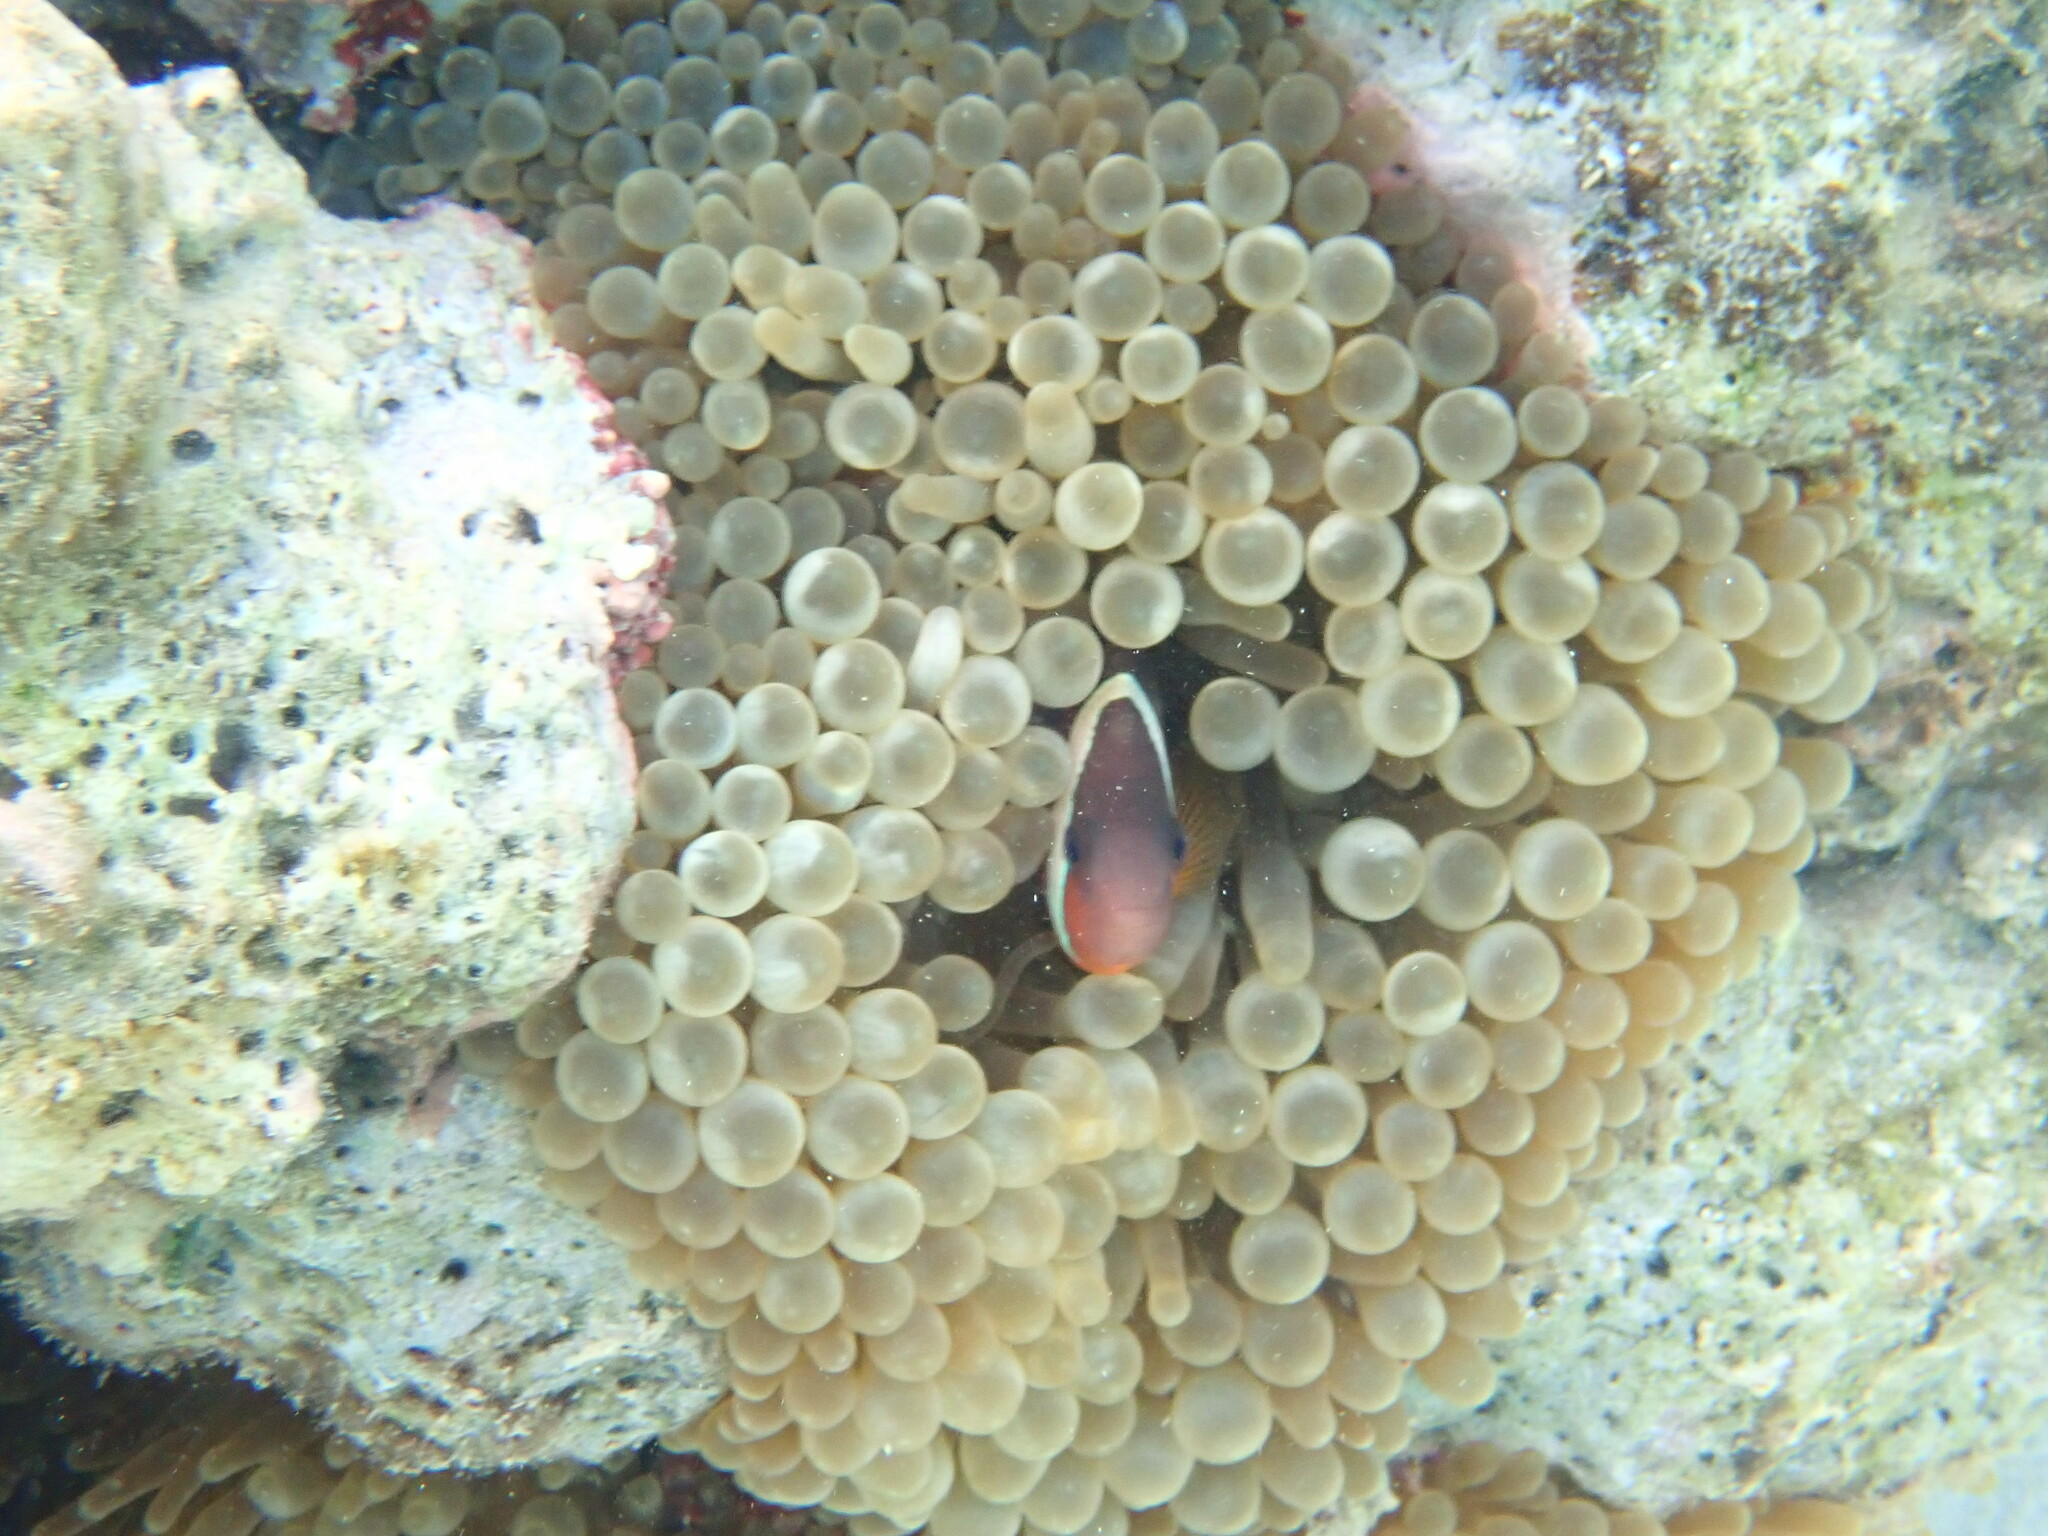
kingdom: Animalia
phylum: Cnidaria
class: Anthozoa
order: Actiniaria
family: Actiniidae
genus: Entacmaea
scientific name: Entacmaea quadricolor
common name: Bulb tentacle sea anemone
